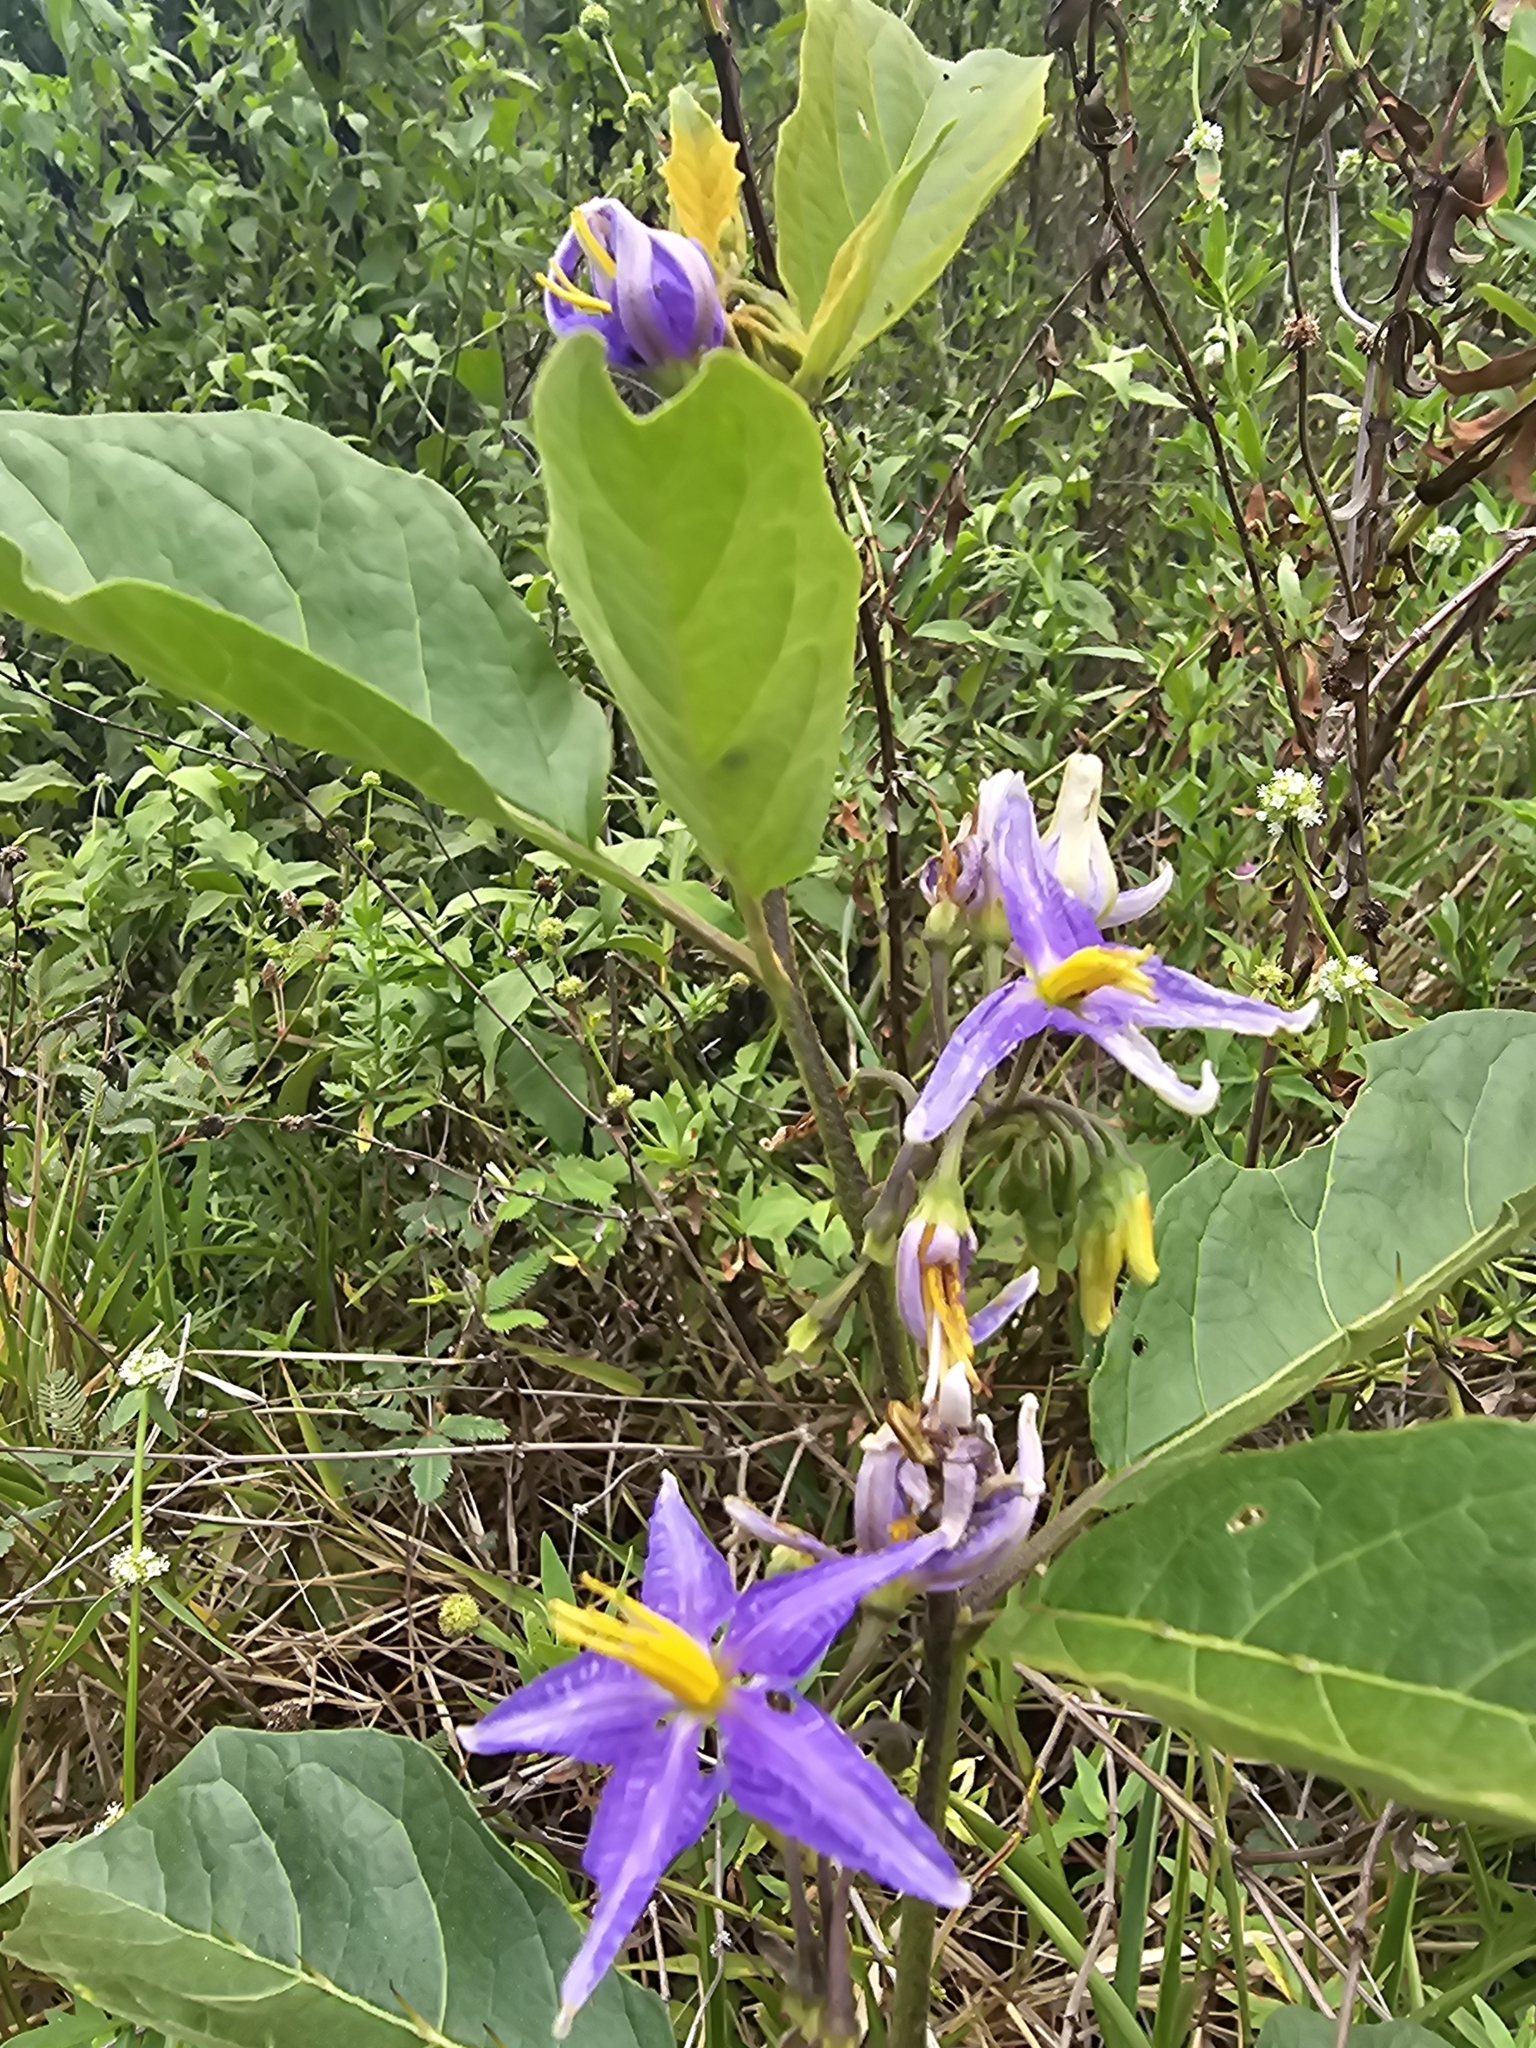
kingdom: Plantae
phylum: Tracheophyta
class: Magnoliopsida
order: Solanales
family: Solanaceae
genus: Solanum
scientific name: Solanum subinerme
